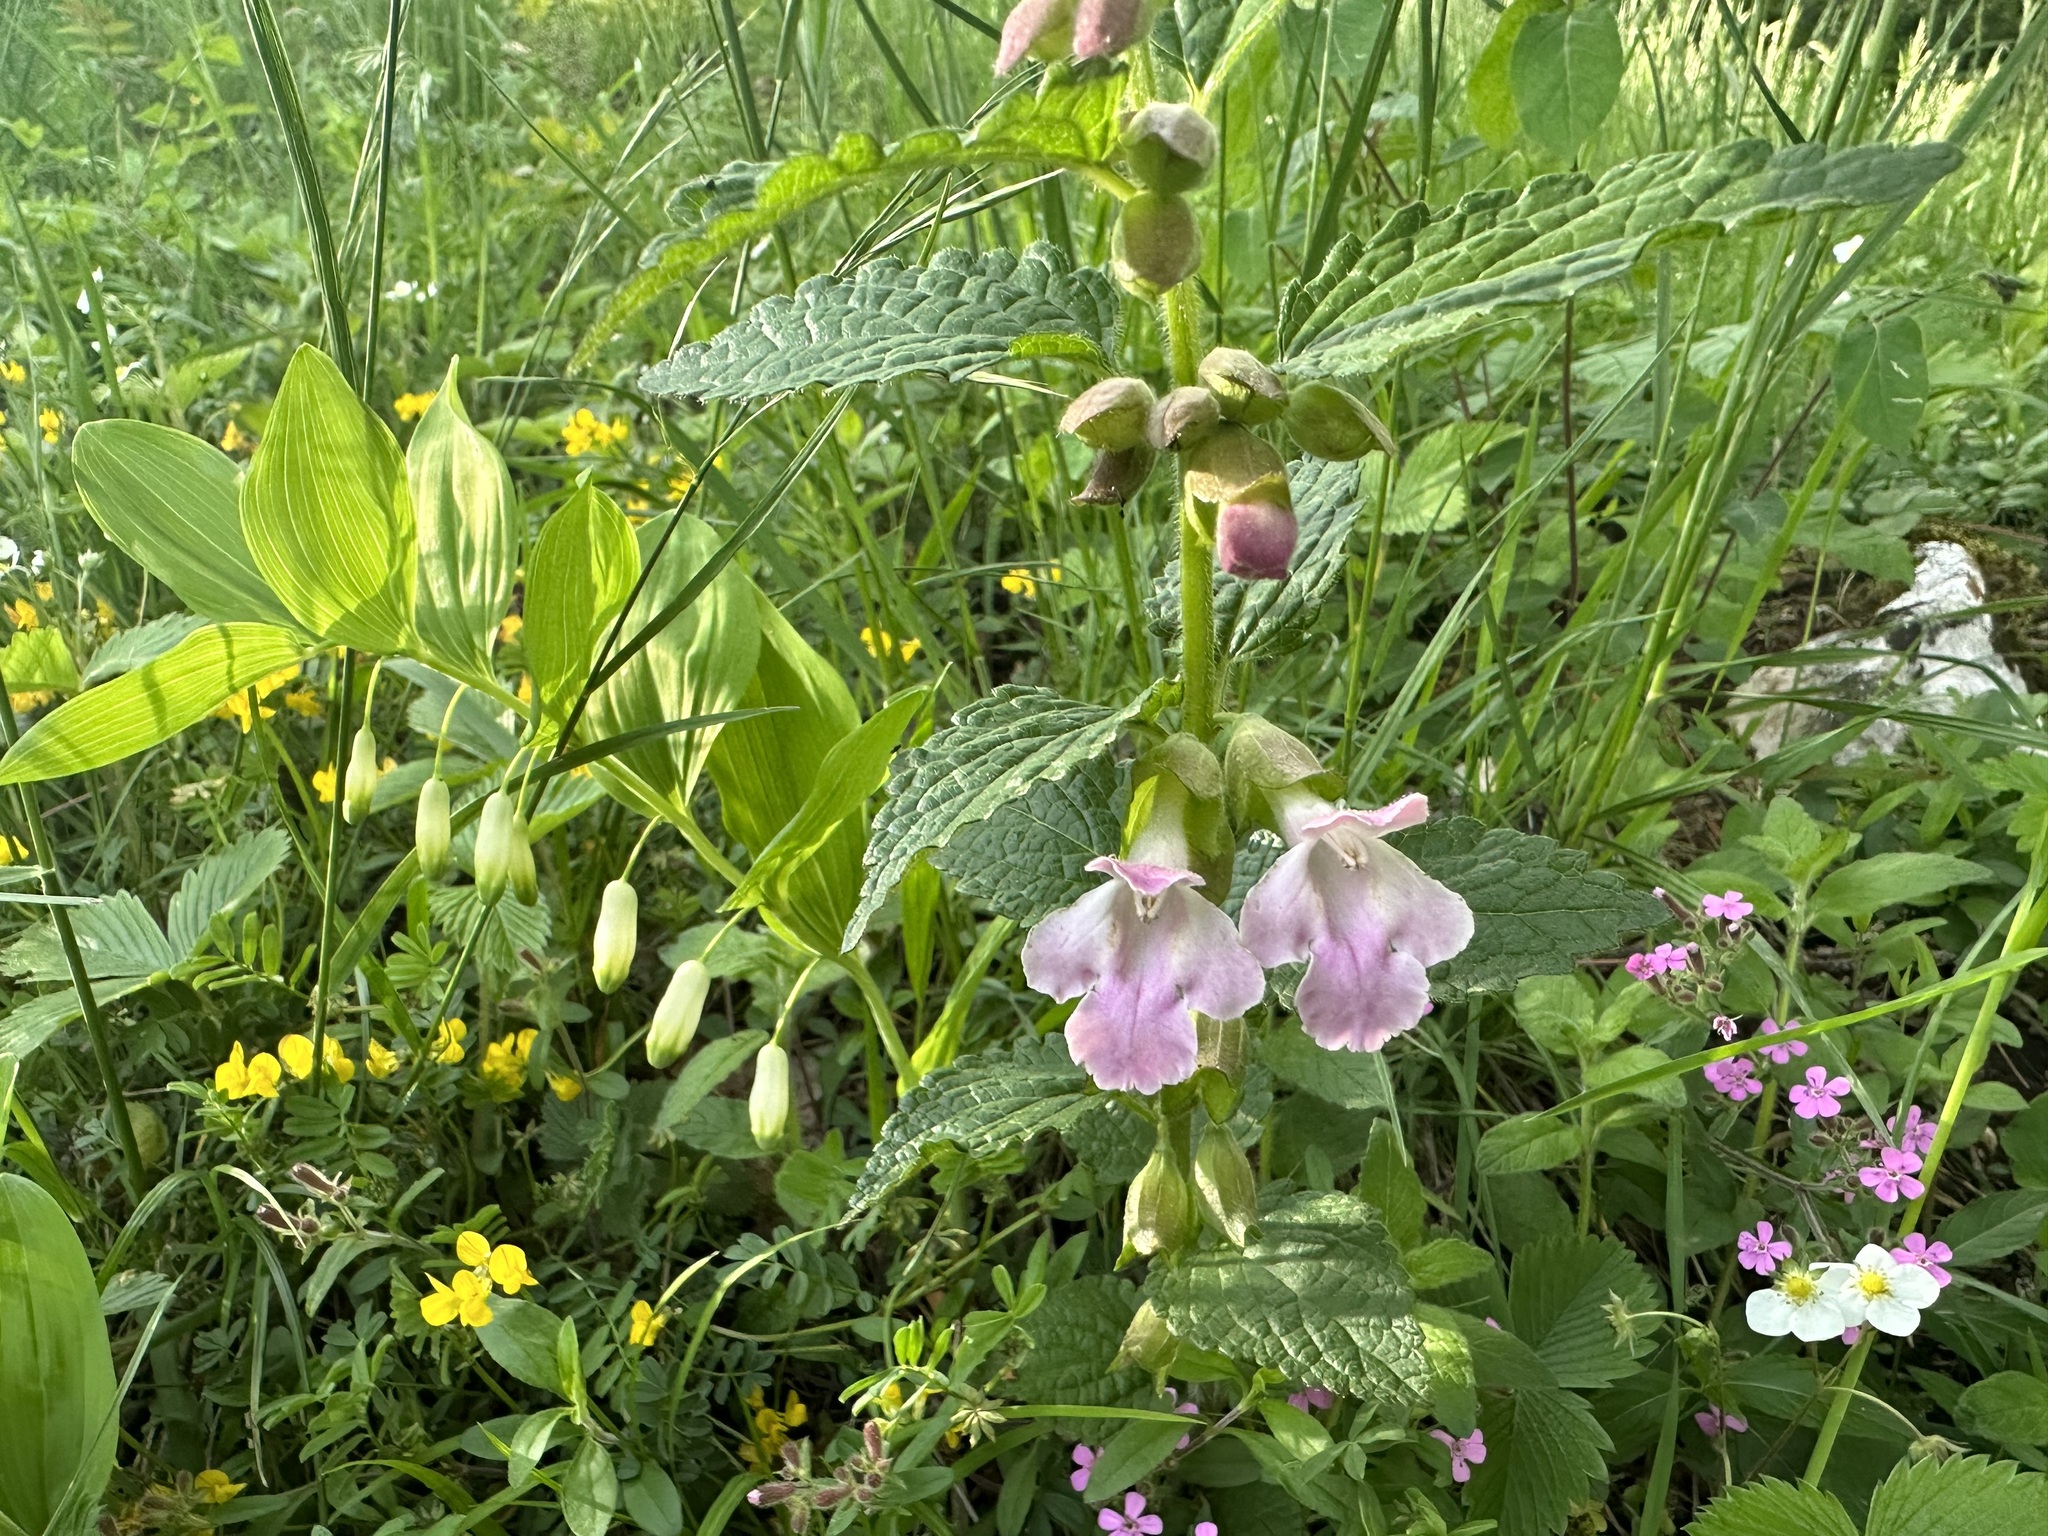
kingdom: Plantae
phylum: Tracheophyta
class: Magnoliopsida
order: Lamiales
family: Lamiaceae
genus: Melittis
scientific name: Melittis melissophyllum
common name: Bastard balm
